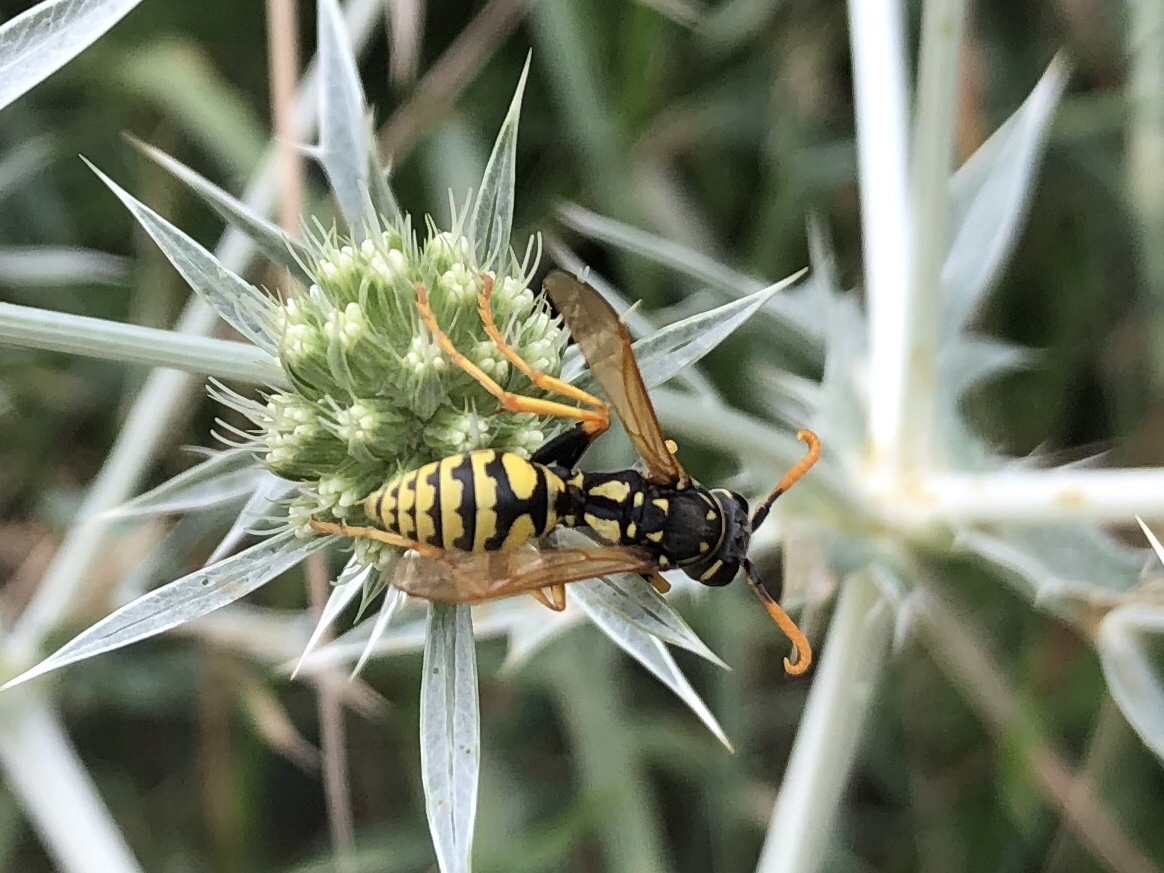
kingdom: Animalia
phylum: Arthropoda
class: Insecta
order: Hymenoptera
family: Eumenidae
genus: Polistes
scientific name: Polistes dominula
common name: Paper wasp
